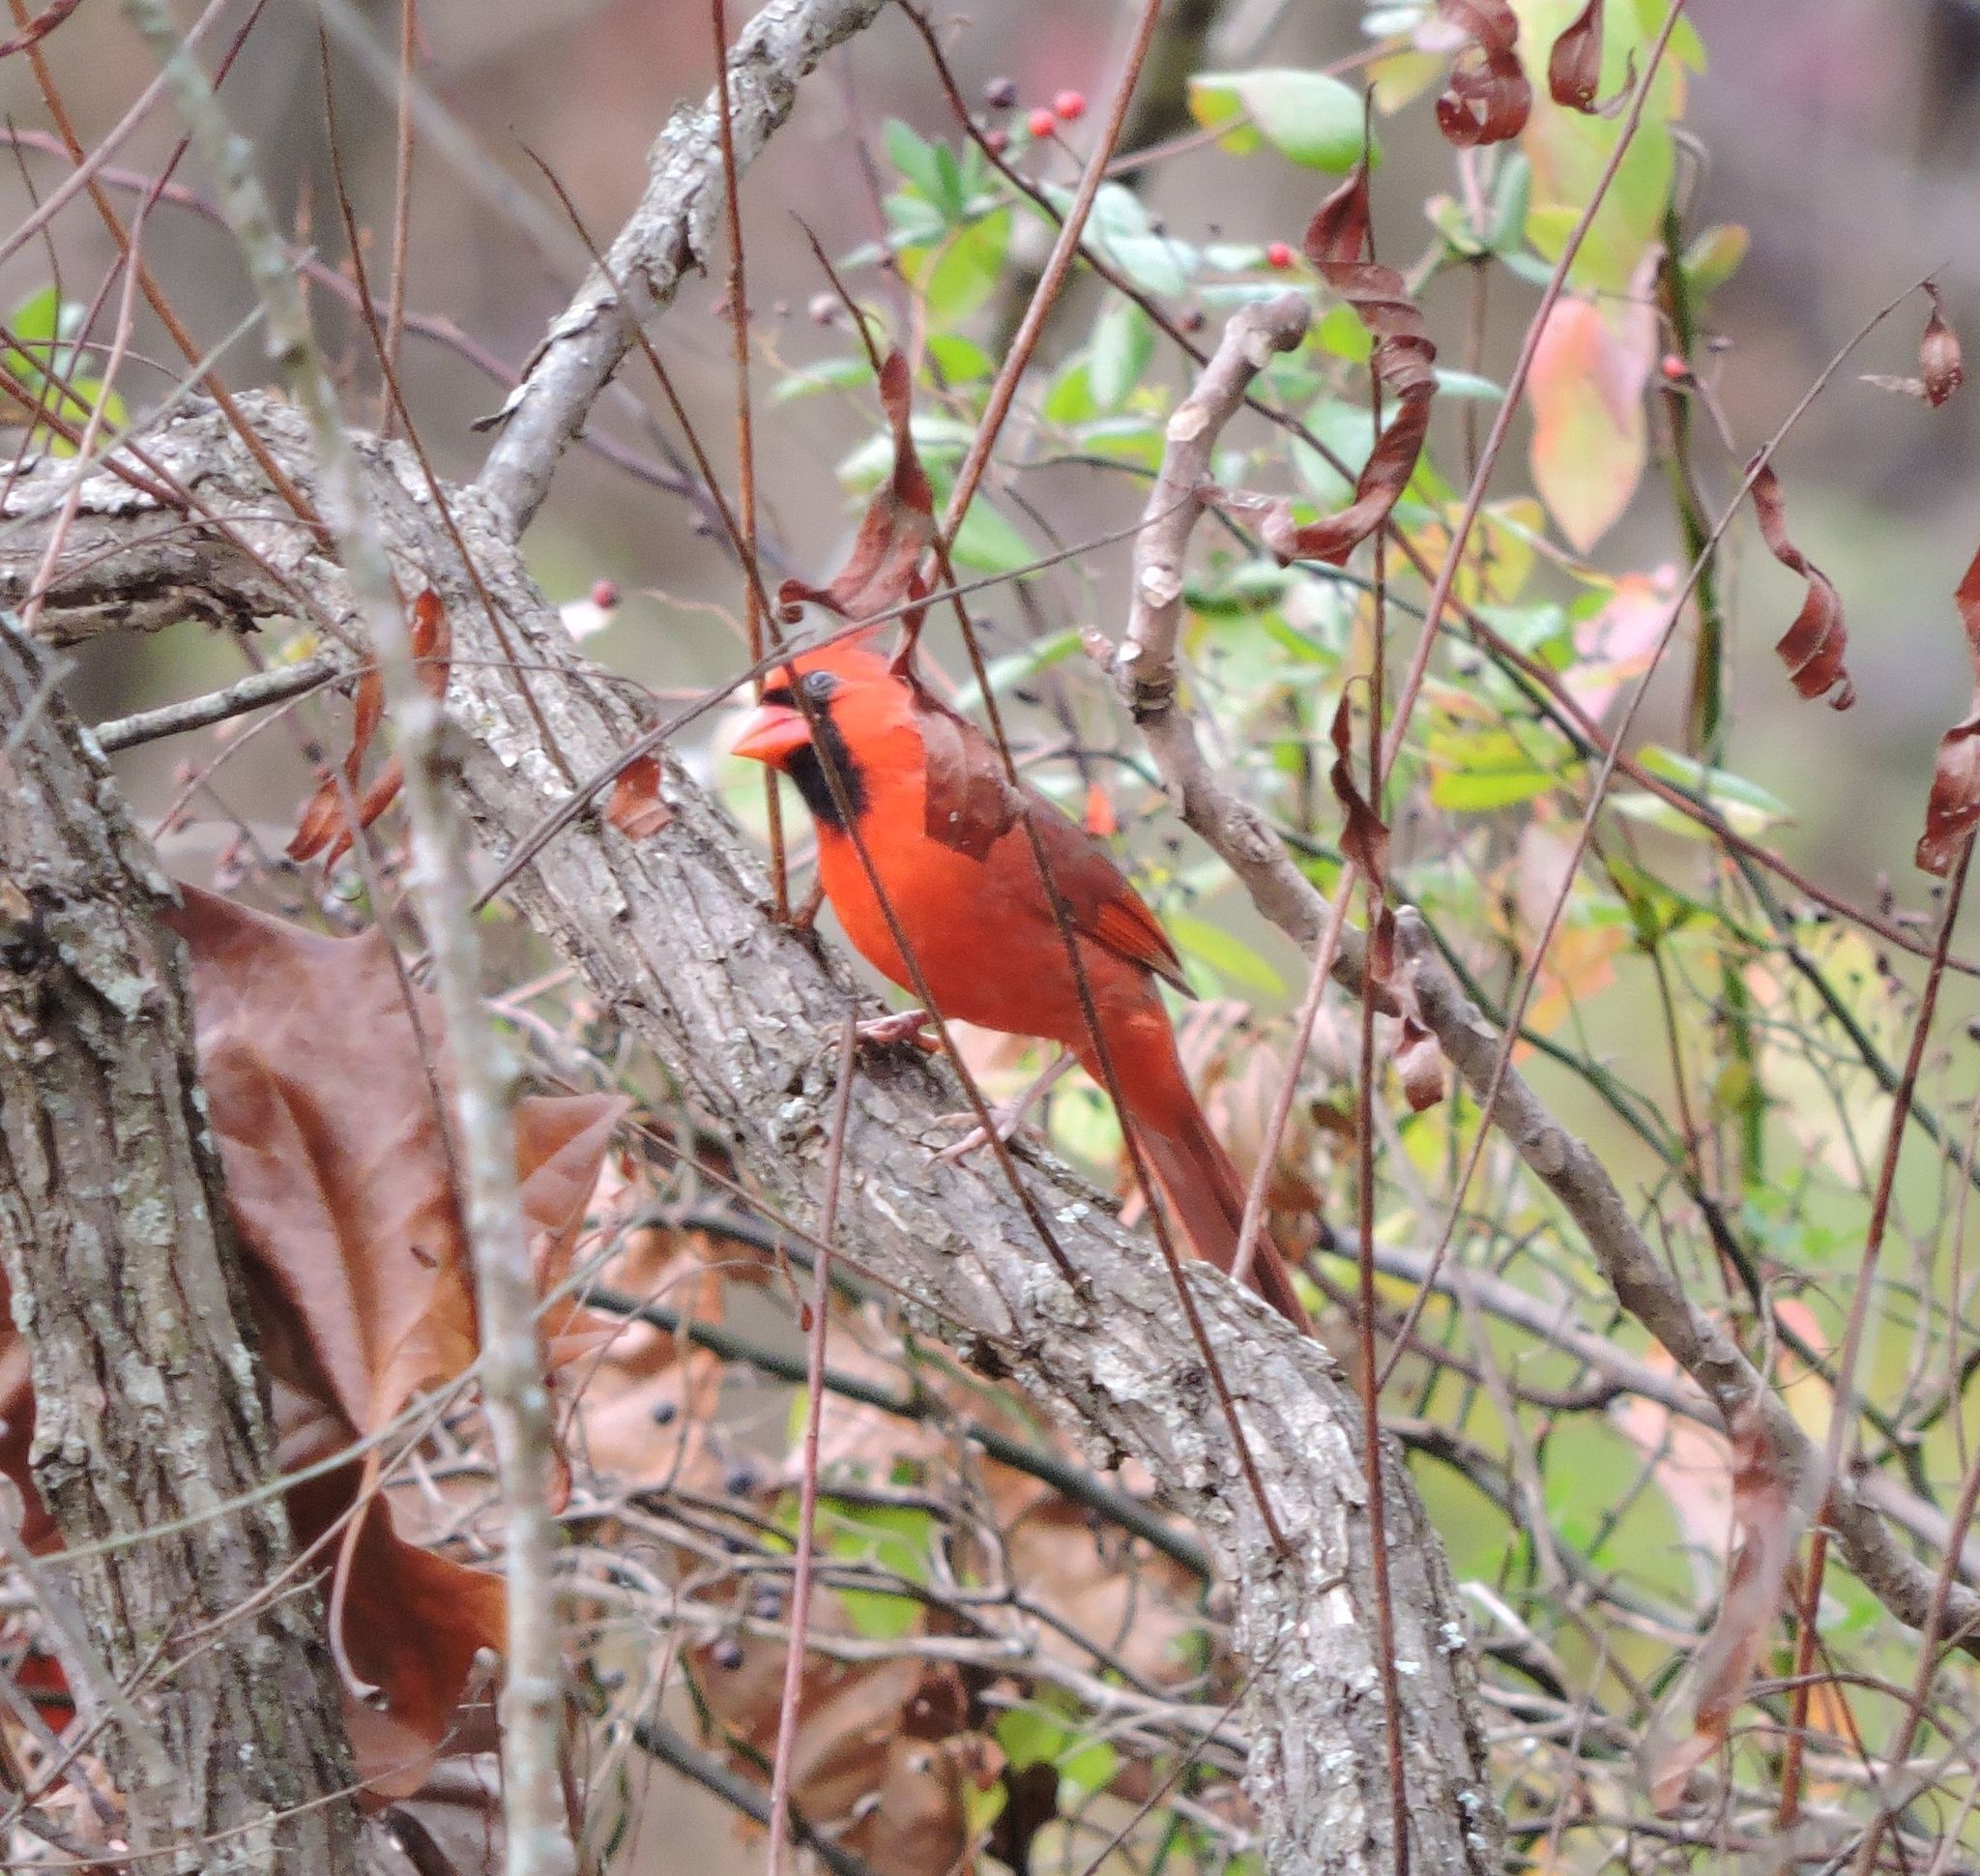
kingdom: Animalia
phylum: Chordata
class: Aves
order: Passeriformes
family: Cardinalidae
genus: Cardinalis
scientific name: Cardinalis cardinalis
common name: Northern cardinal
